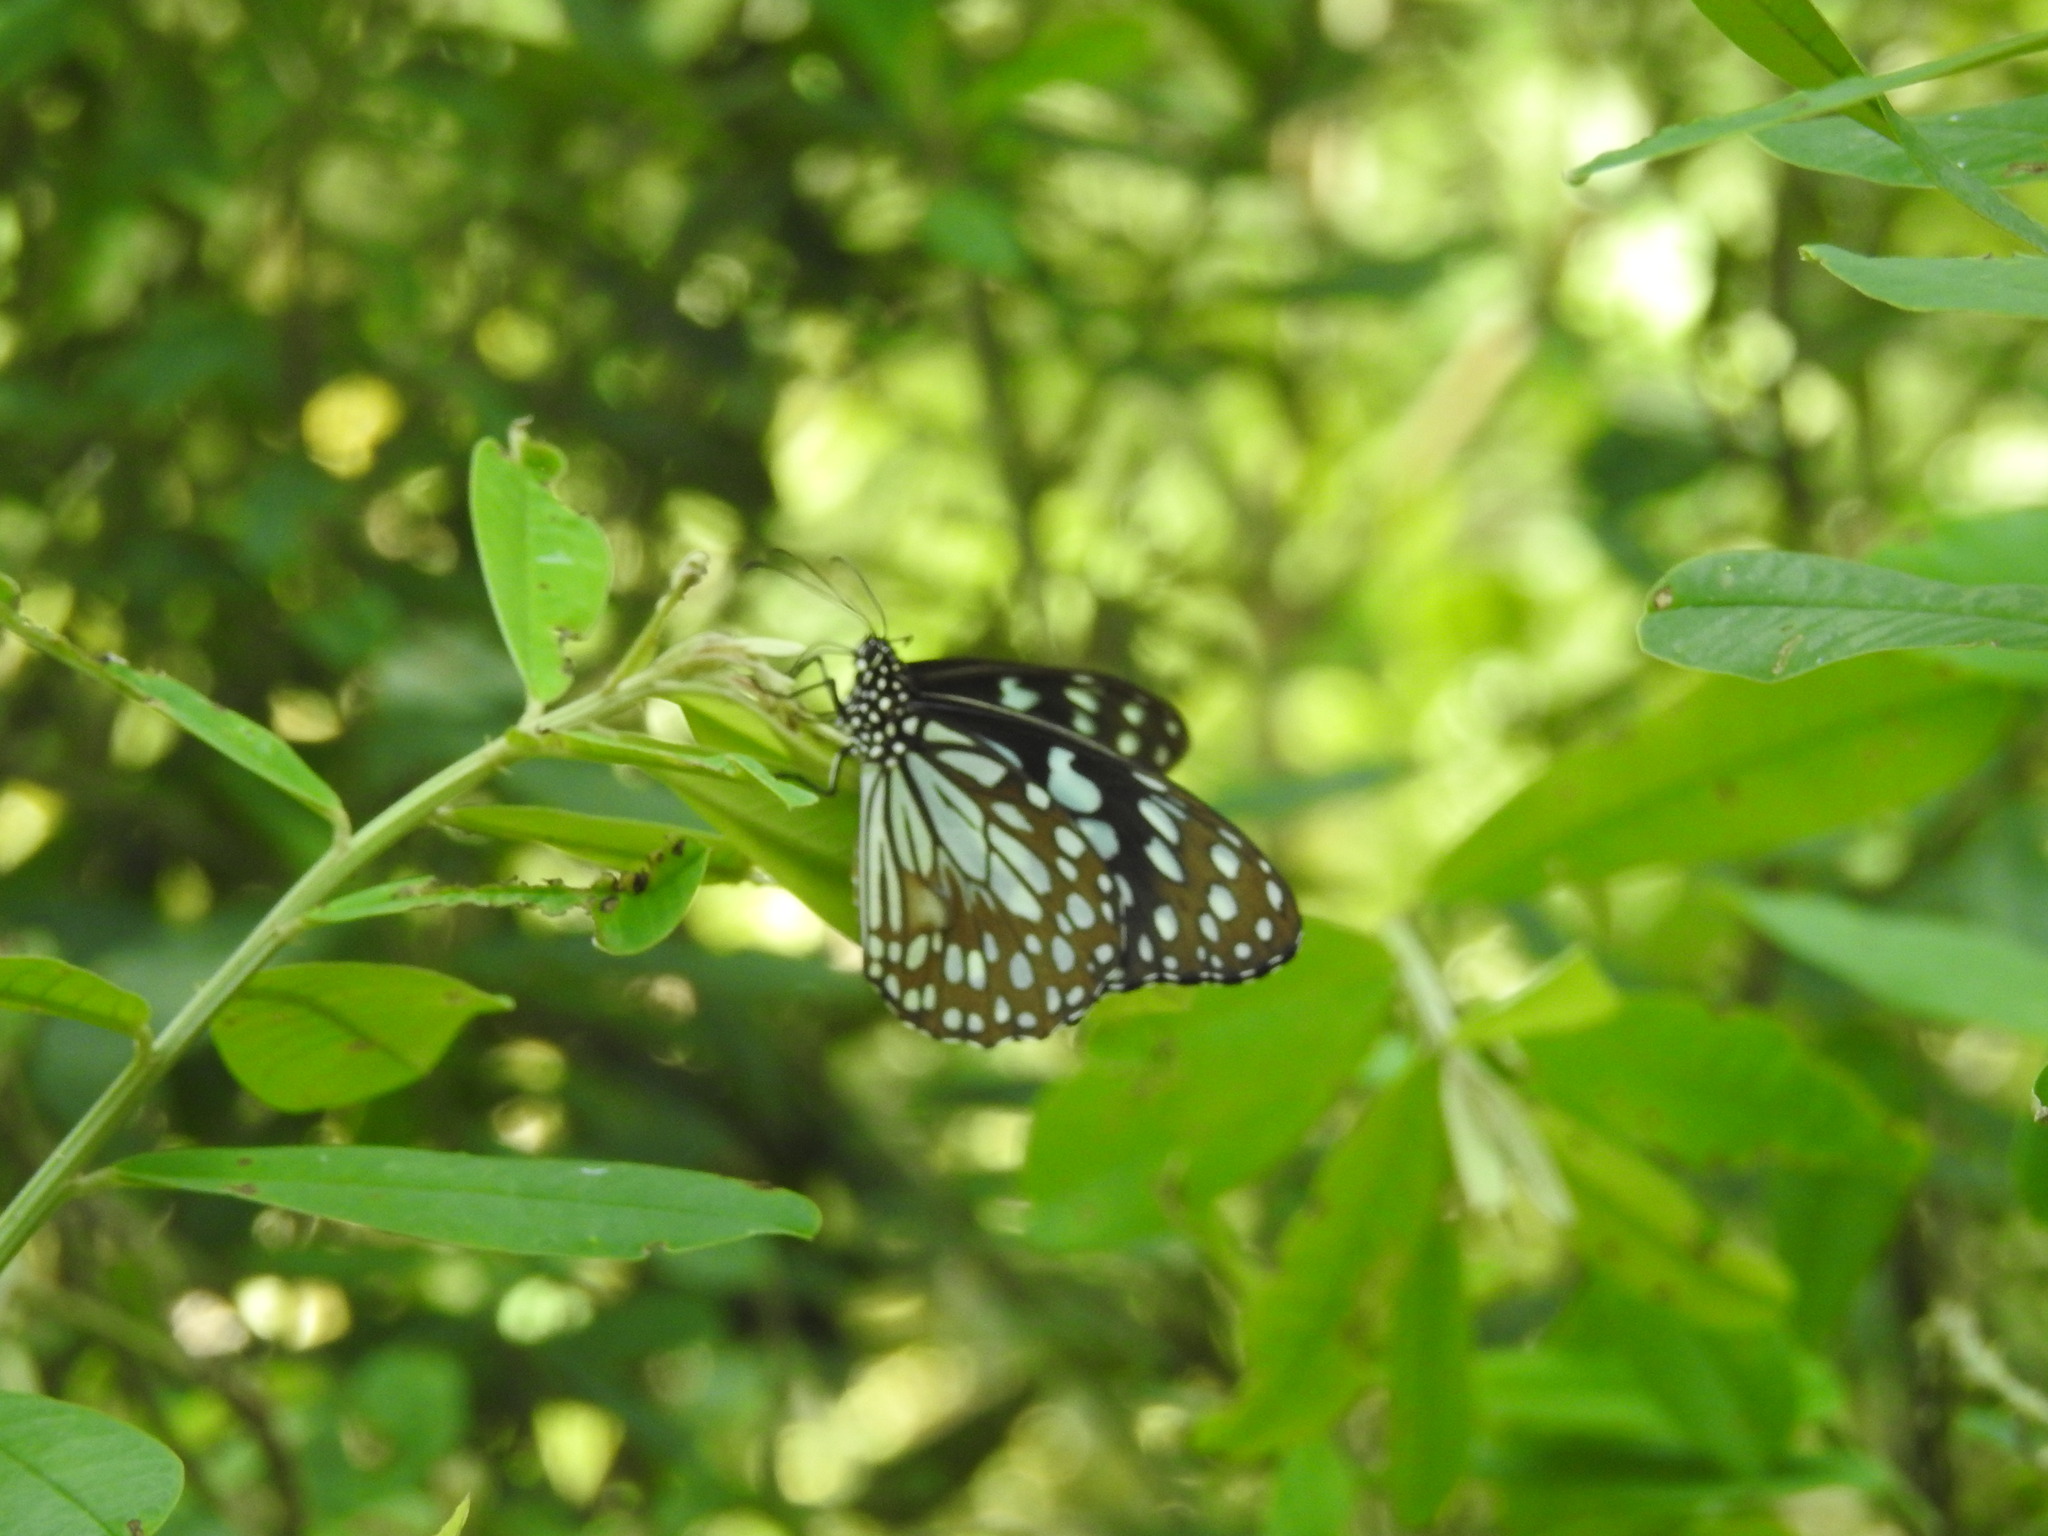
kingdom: Animalia
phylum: Arthropoda
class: Insecta
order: Lepidoptera
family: Nymphalidae
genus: Tirumala
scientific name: Tirumala limniace
